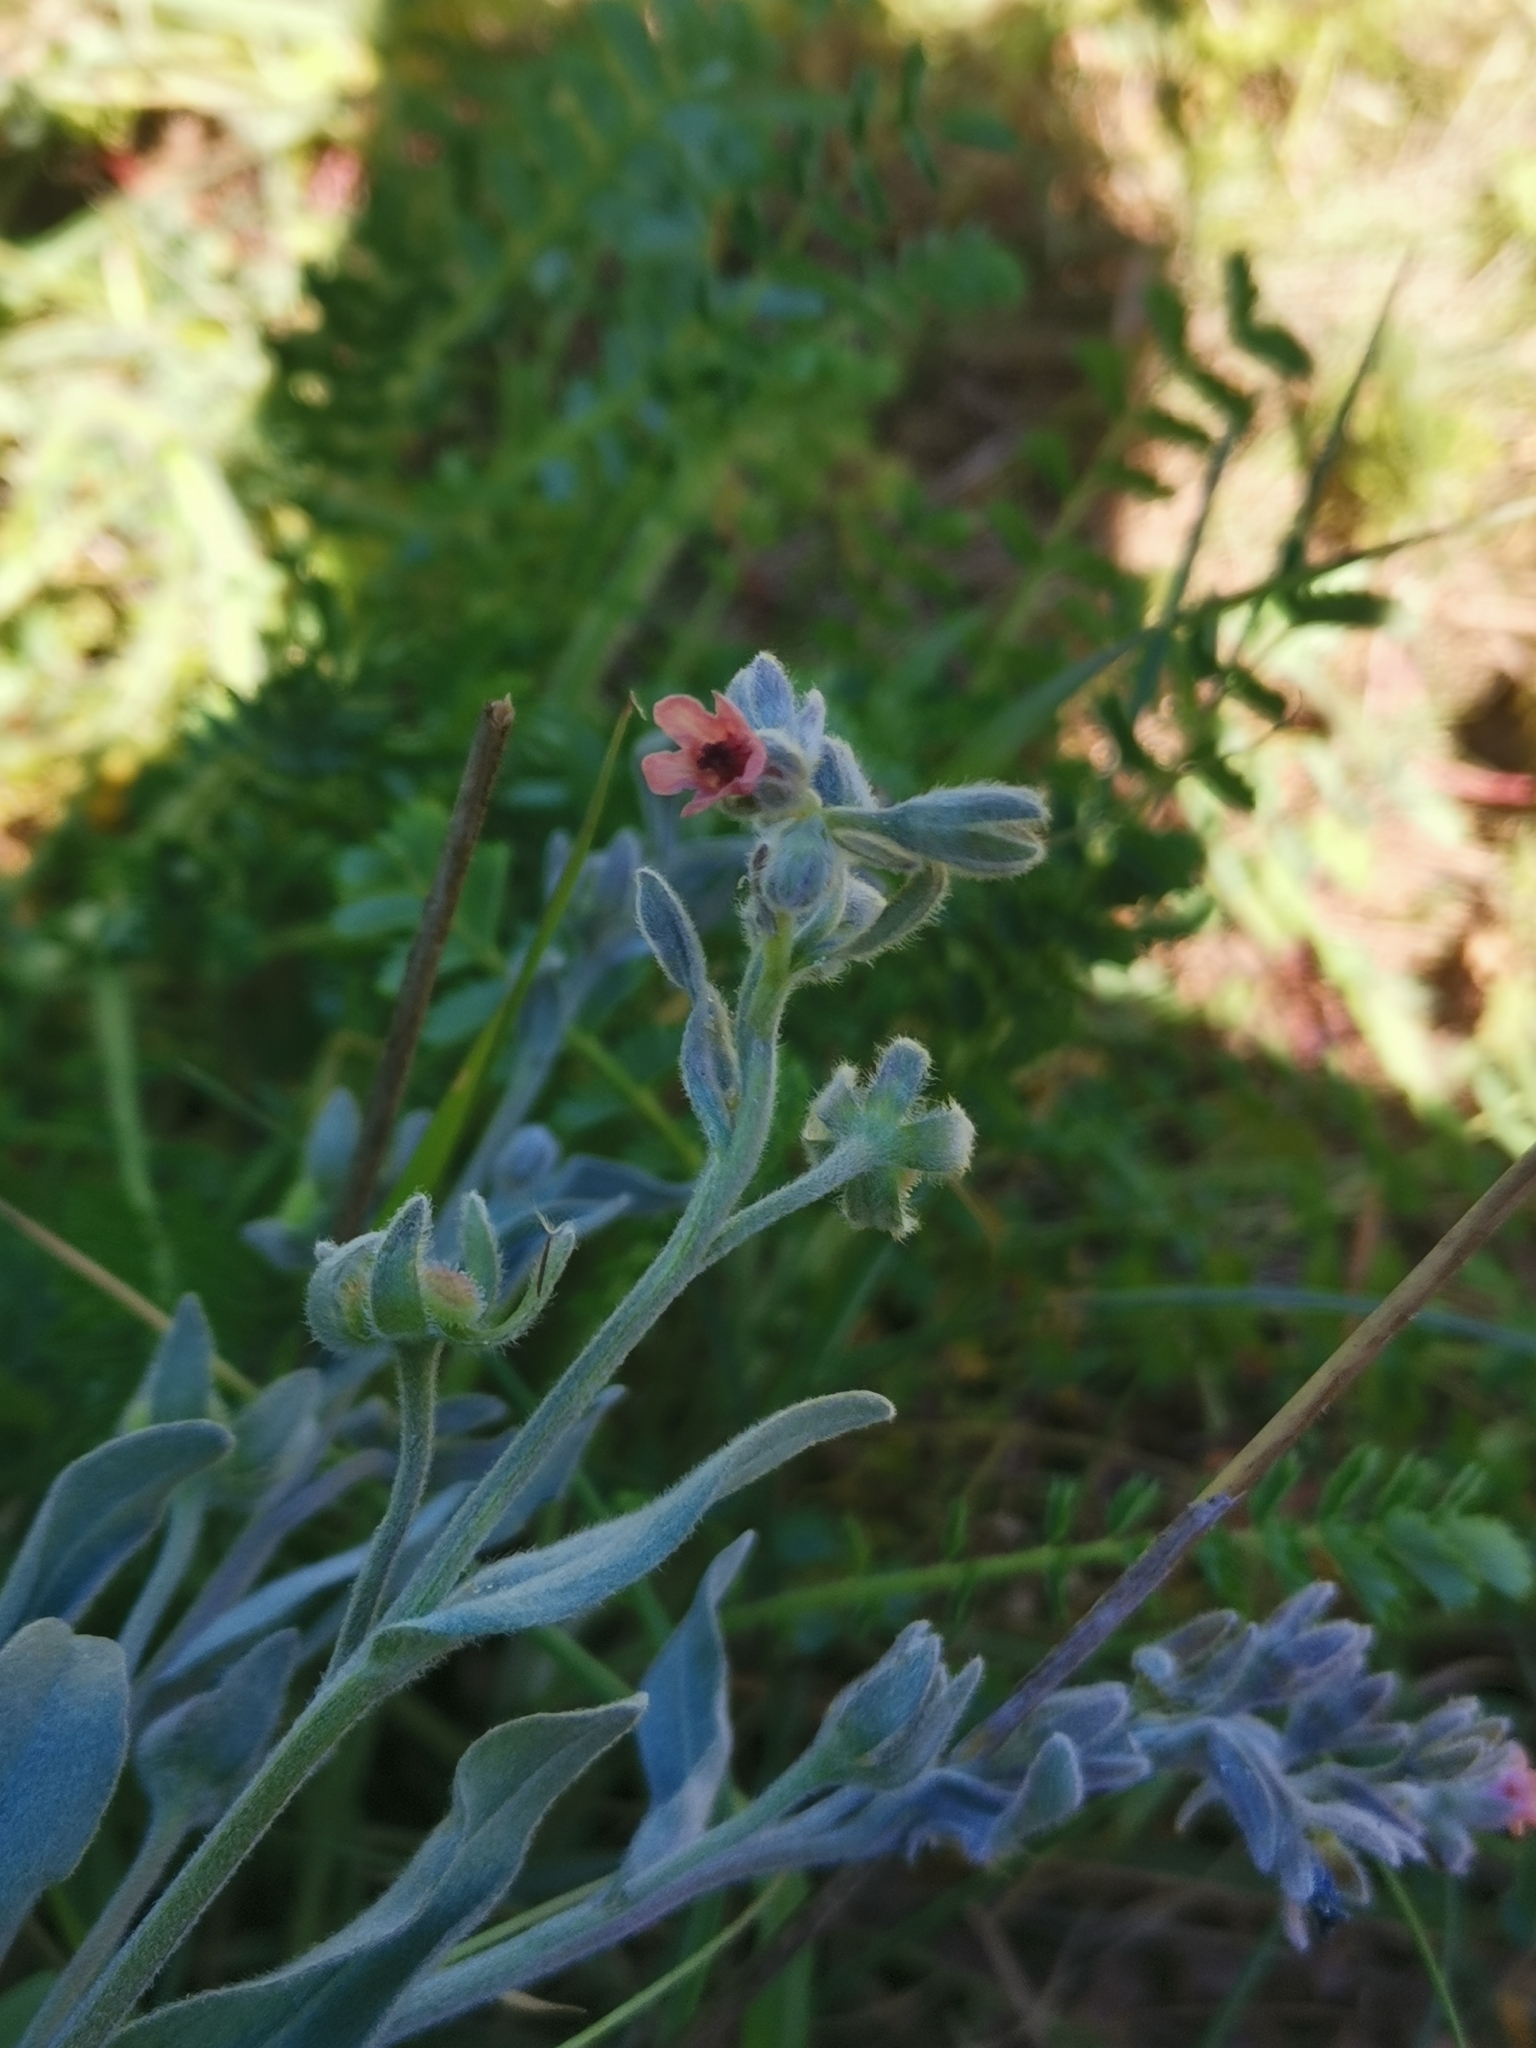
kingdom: Plantae
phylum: Tracheophyta
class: Magnoliopsida
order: Boraginales
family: Boraginaceae
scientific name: Boraginaceae
